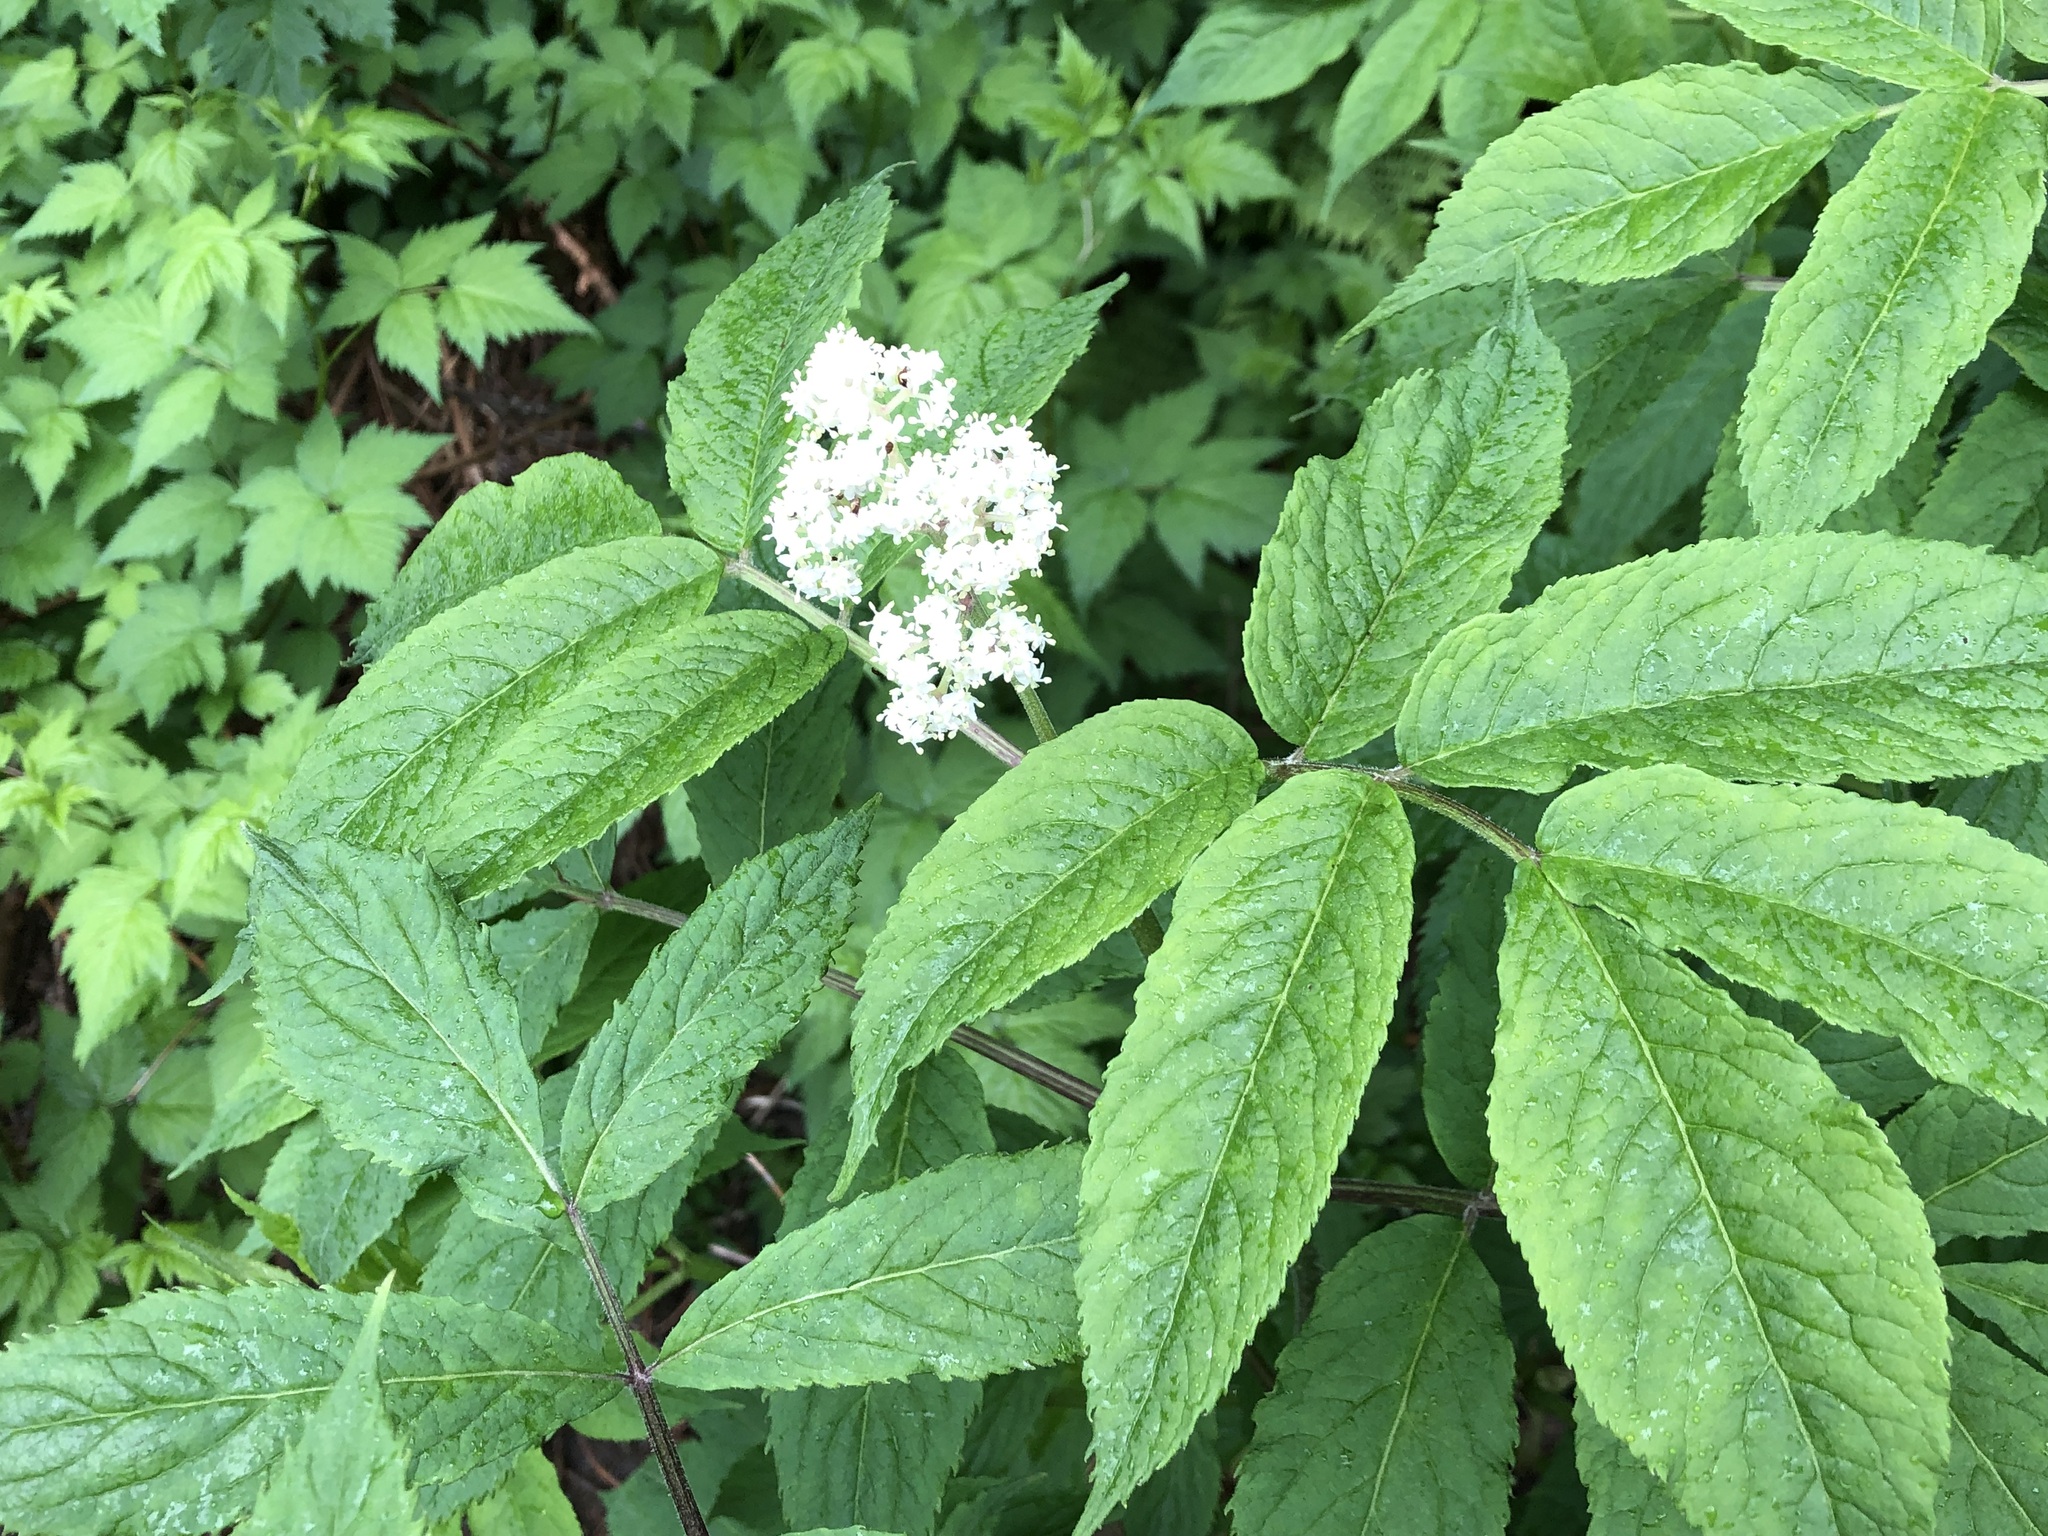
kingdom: Plantae
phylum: Tracheophyta
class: Magnoliopsida
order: Dipsacales
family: Viburnaceae
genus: Sambucus
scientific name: Sambucus racemosa
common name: Red-berried elder
